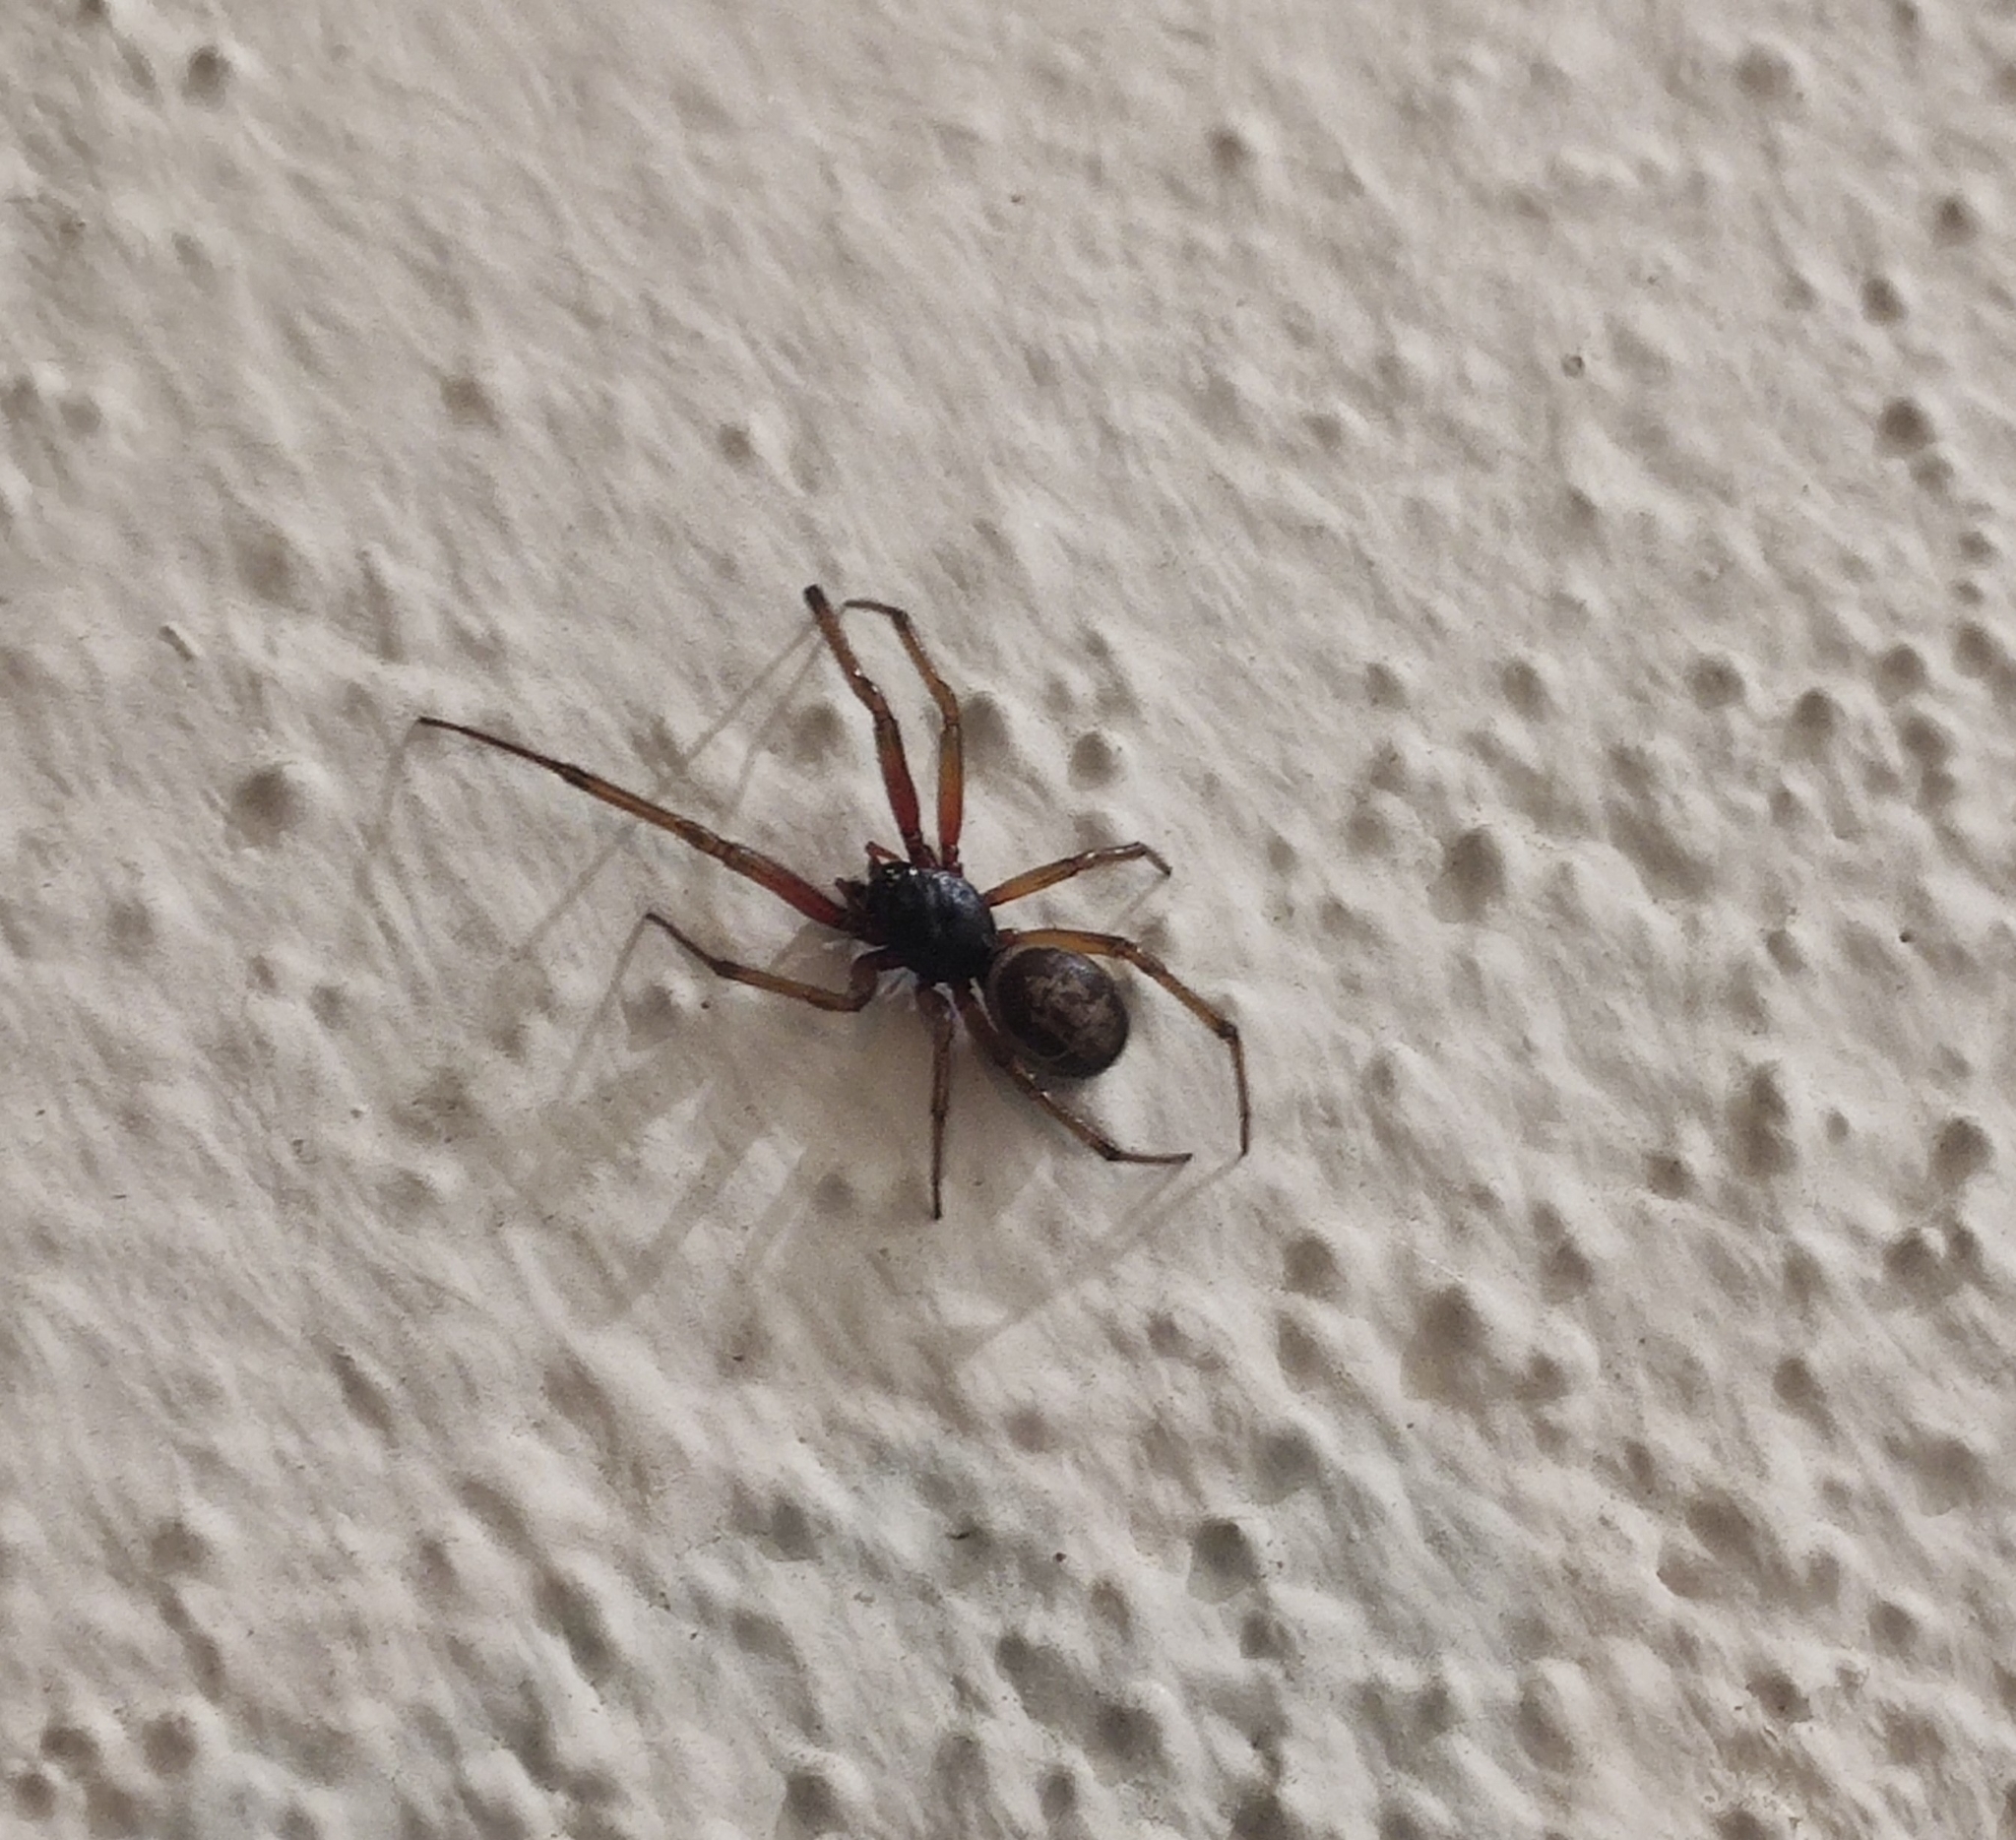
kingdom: Animalia
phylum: Arthropoda
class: Arachnida
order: Araneae
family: Theridiidae
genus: Steatoda
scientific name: Steatoda nobilis
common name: Cobweb weaver
